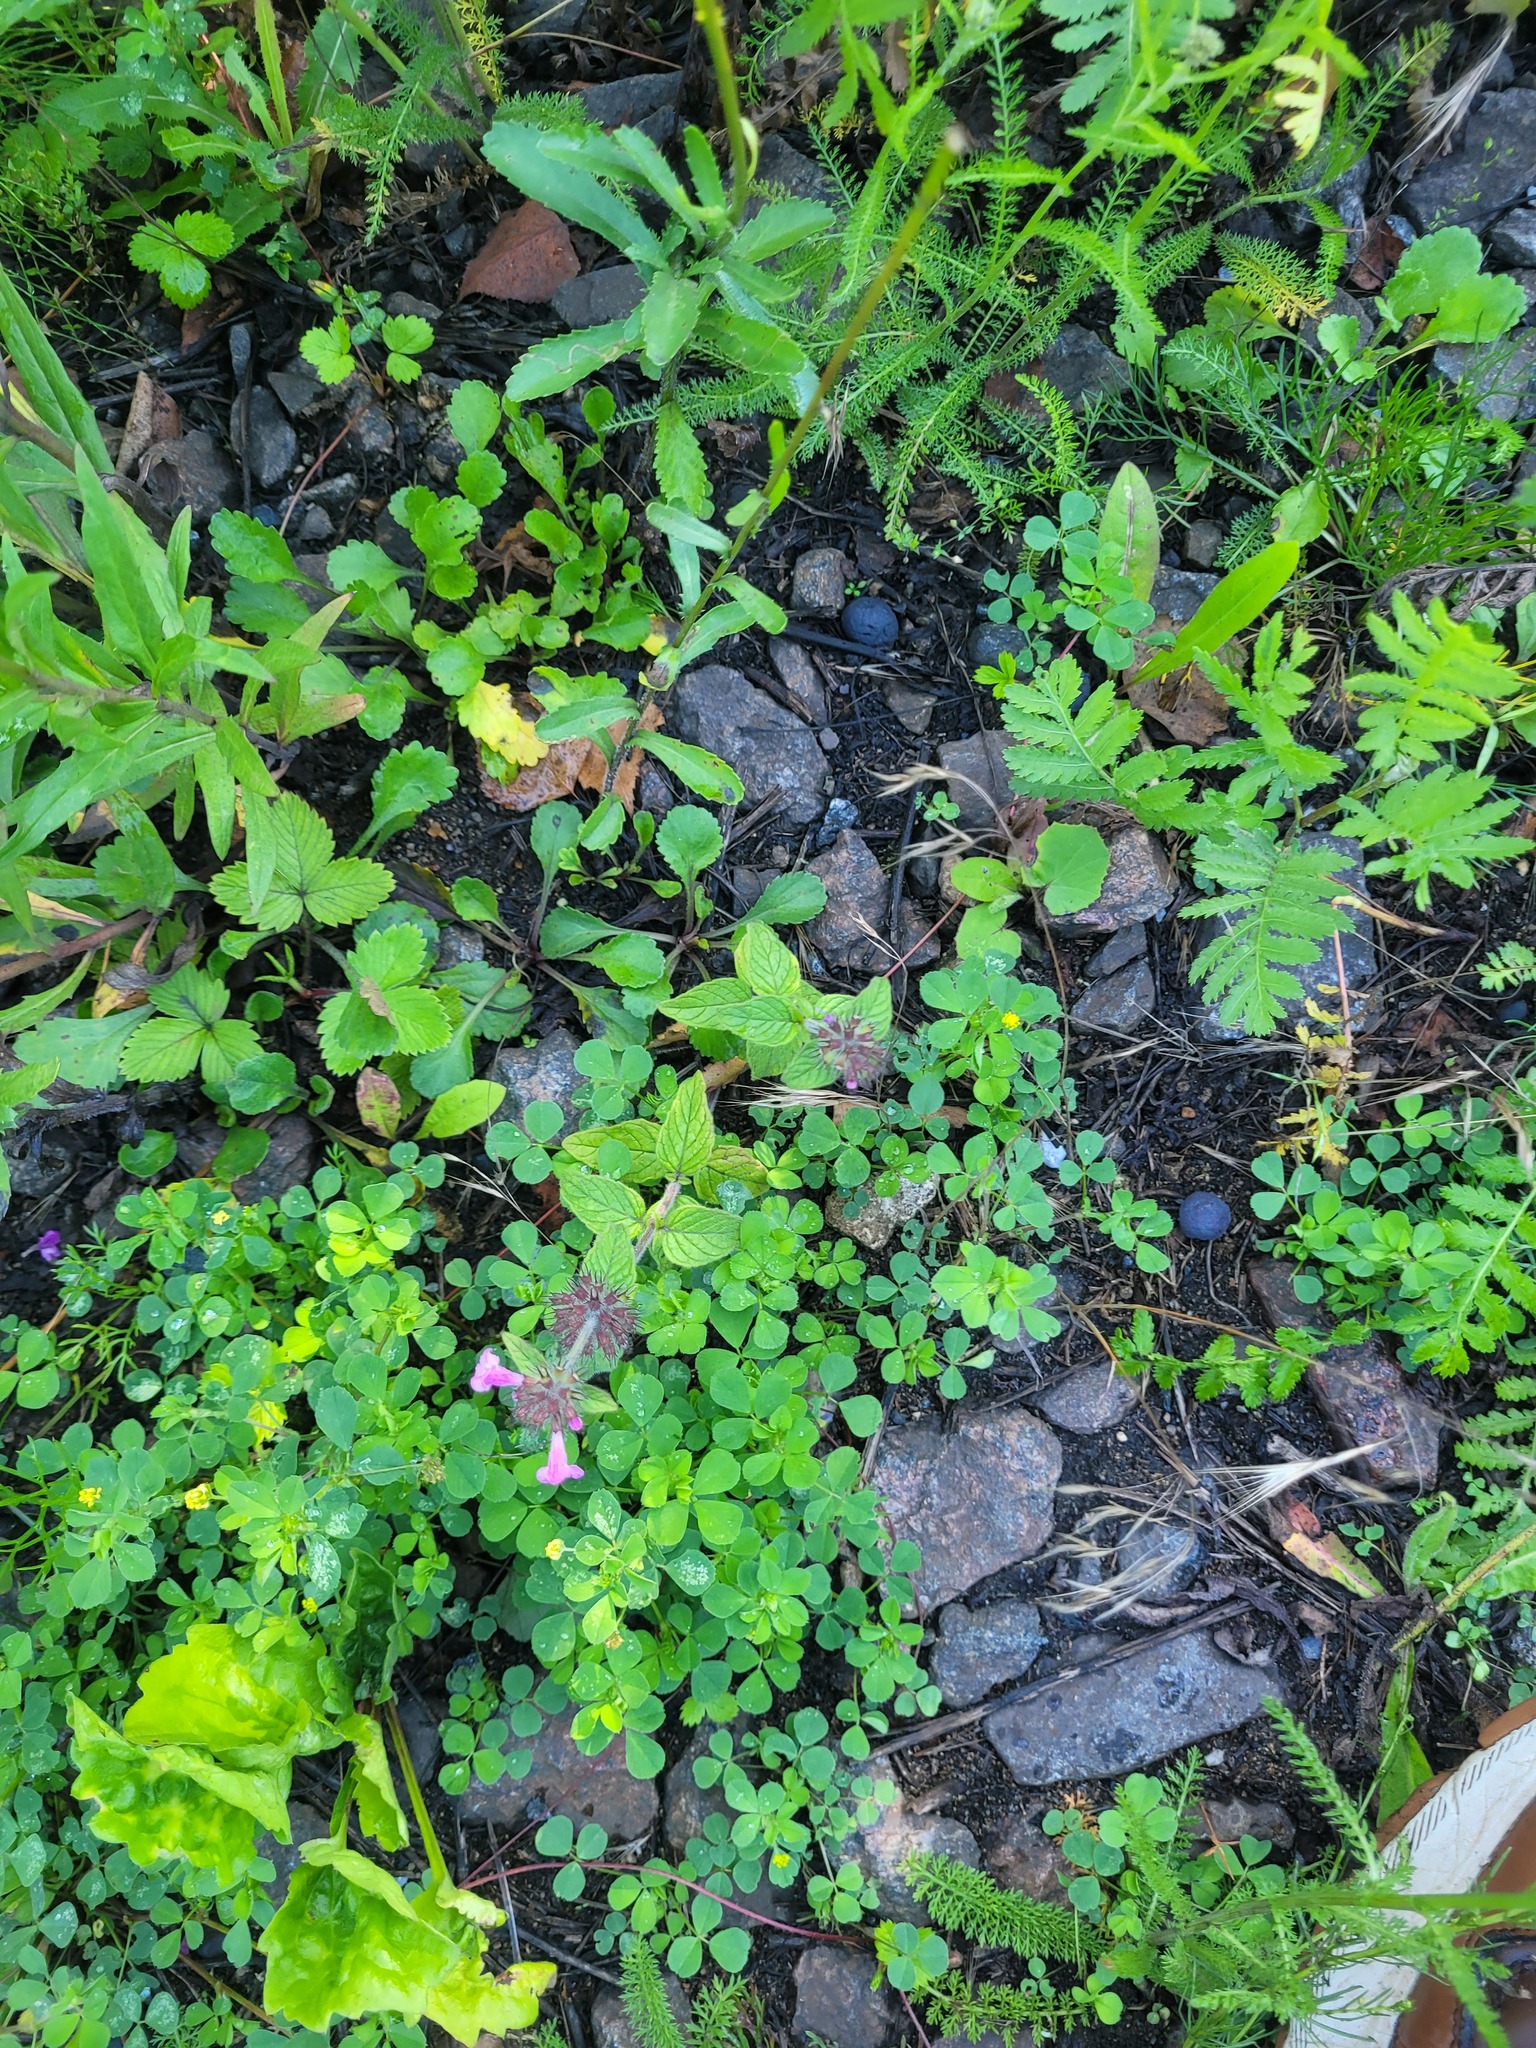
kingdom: Plantae
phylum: Tracheophyta
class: Magnoliopsida
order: Lamiales
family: Lamiaceae
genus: Clinopodium
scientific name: Clinopodium vulgare
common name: Wild basil
